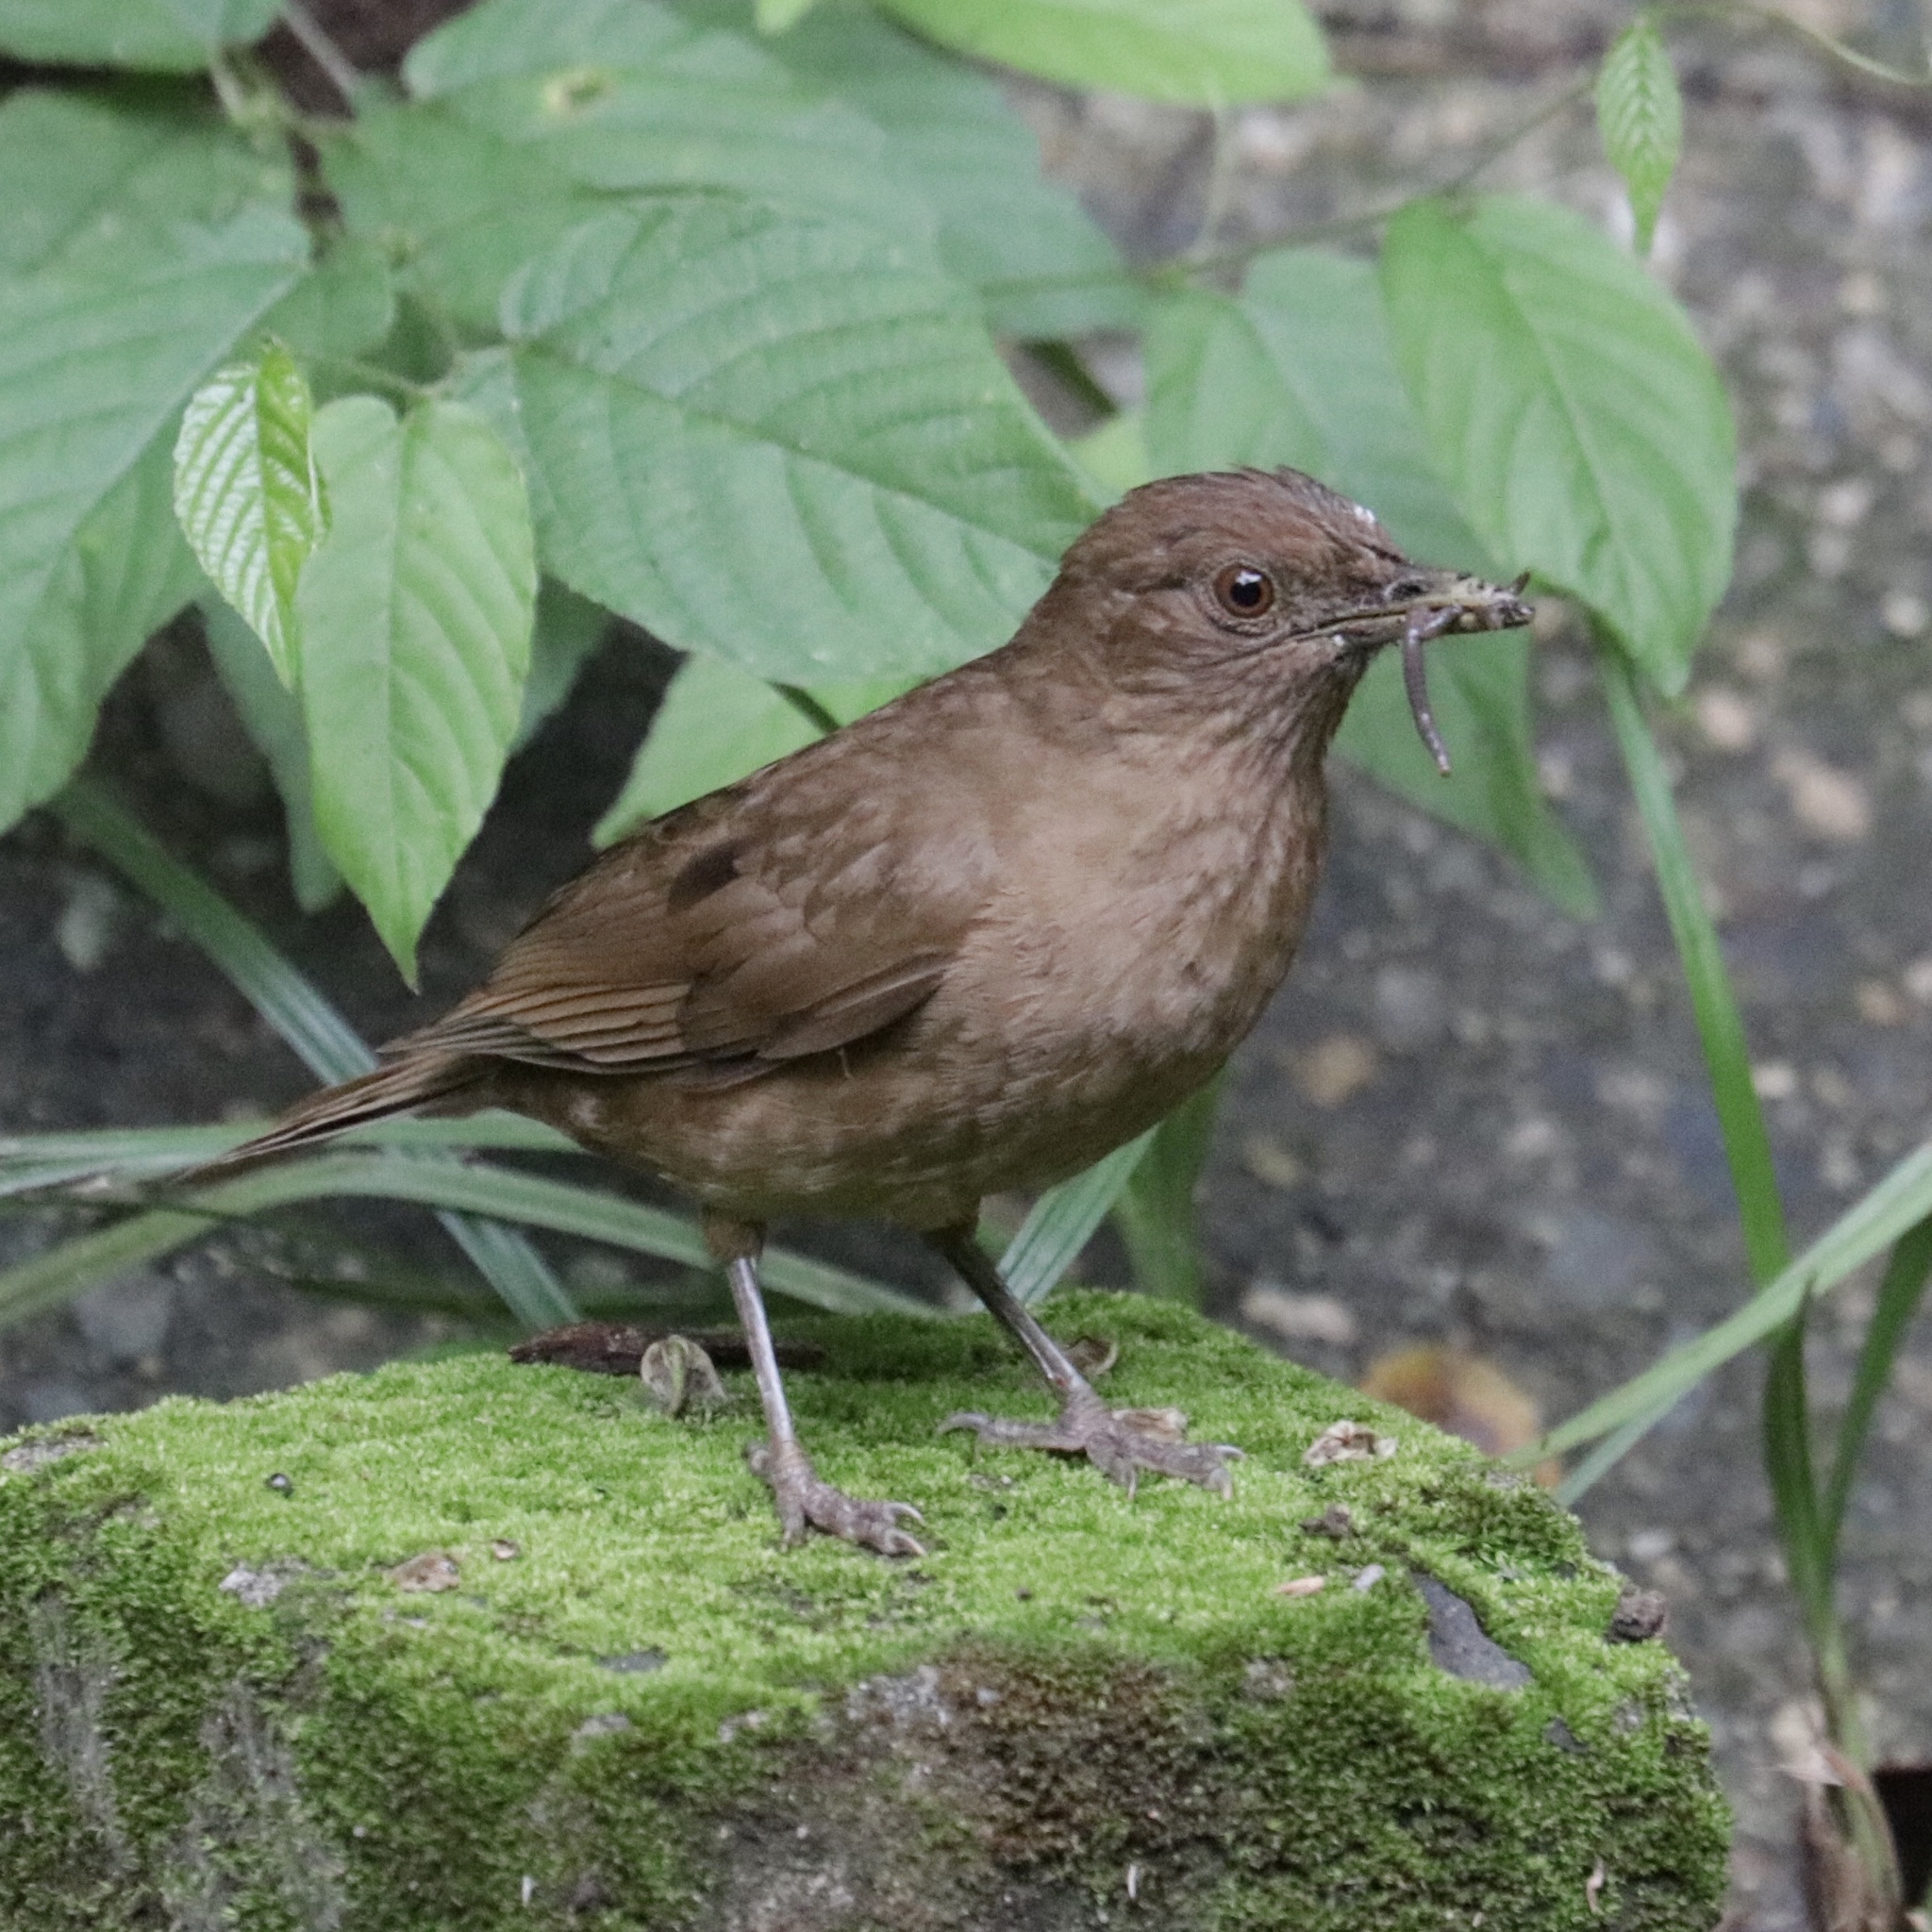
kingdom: Animalia
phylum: Chordata
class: Aves
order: Passeriformes
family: Turdidae
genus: Turdus
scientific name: Turdus grayi
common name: Clay-colored thrush
